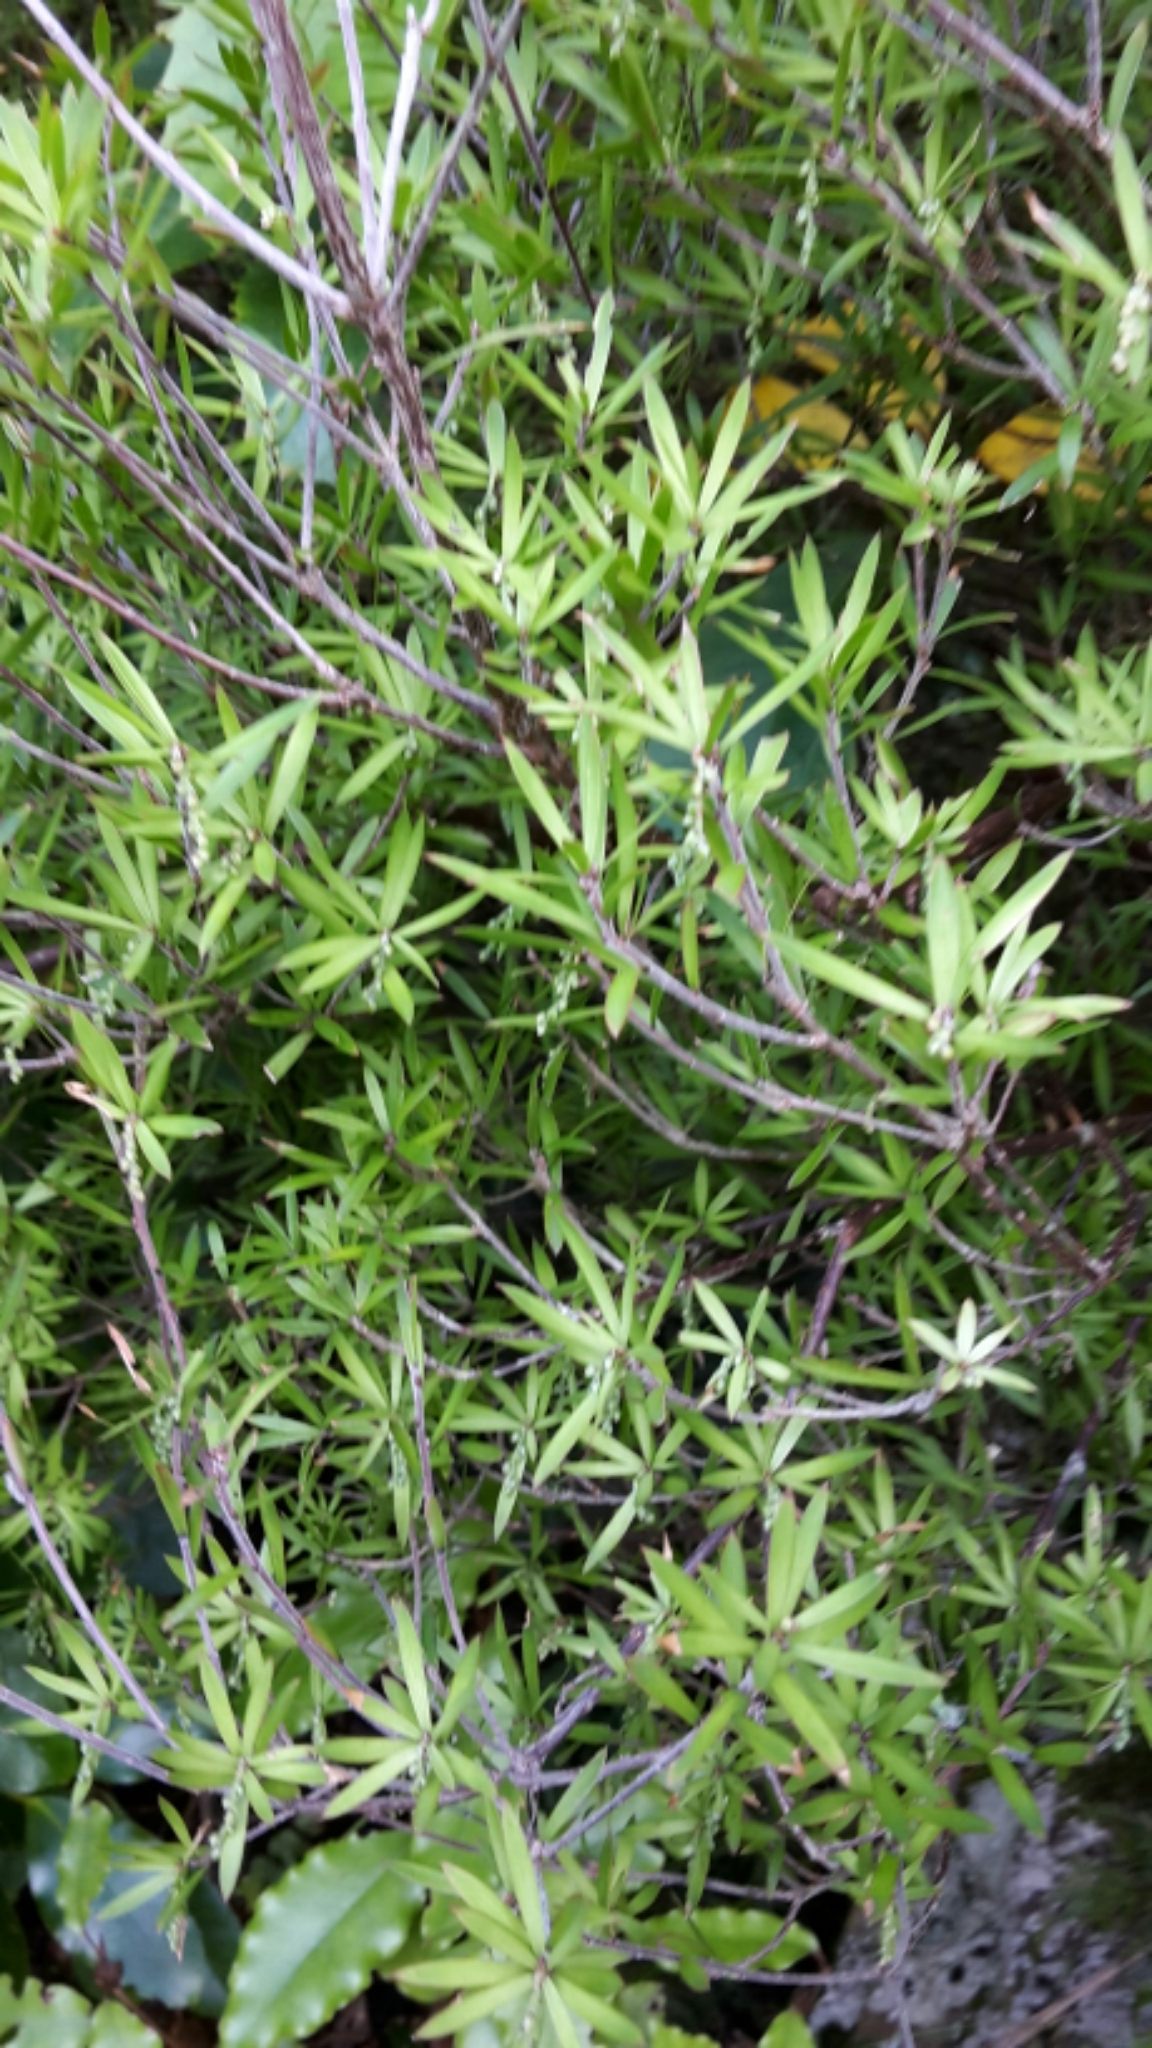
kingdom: Plantae
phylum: Tracheophyta
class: Magnoliopsida
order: Ericales
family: Ericaceae
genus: Leucopogon
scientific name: Leucopogon fasciculatus
